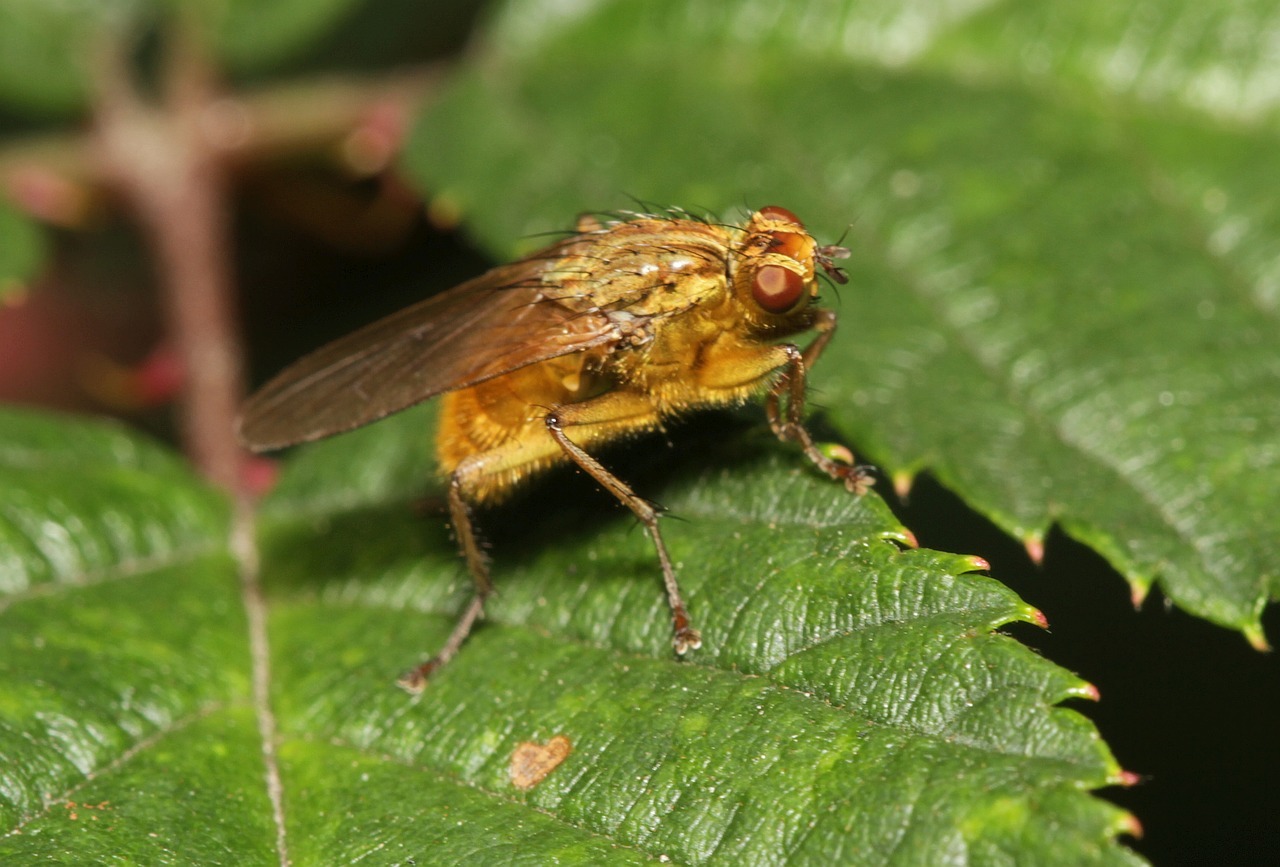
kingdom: Animalia
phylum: Arthropoda
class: Insecta
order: Diptera
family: Scathophagidae
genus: Scathophaga
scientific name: Scathophaga stercoraria
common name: Yellow dung fly
